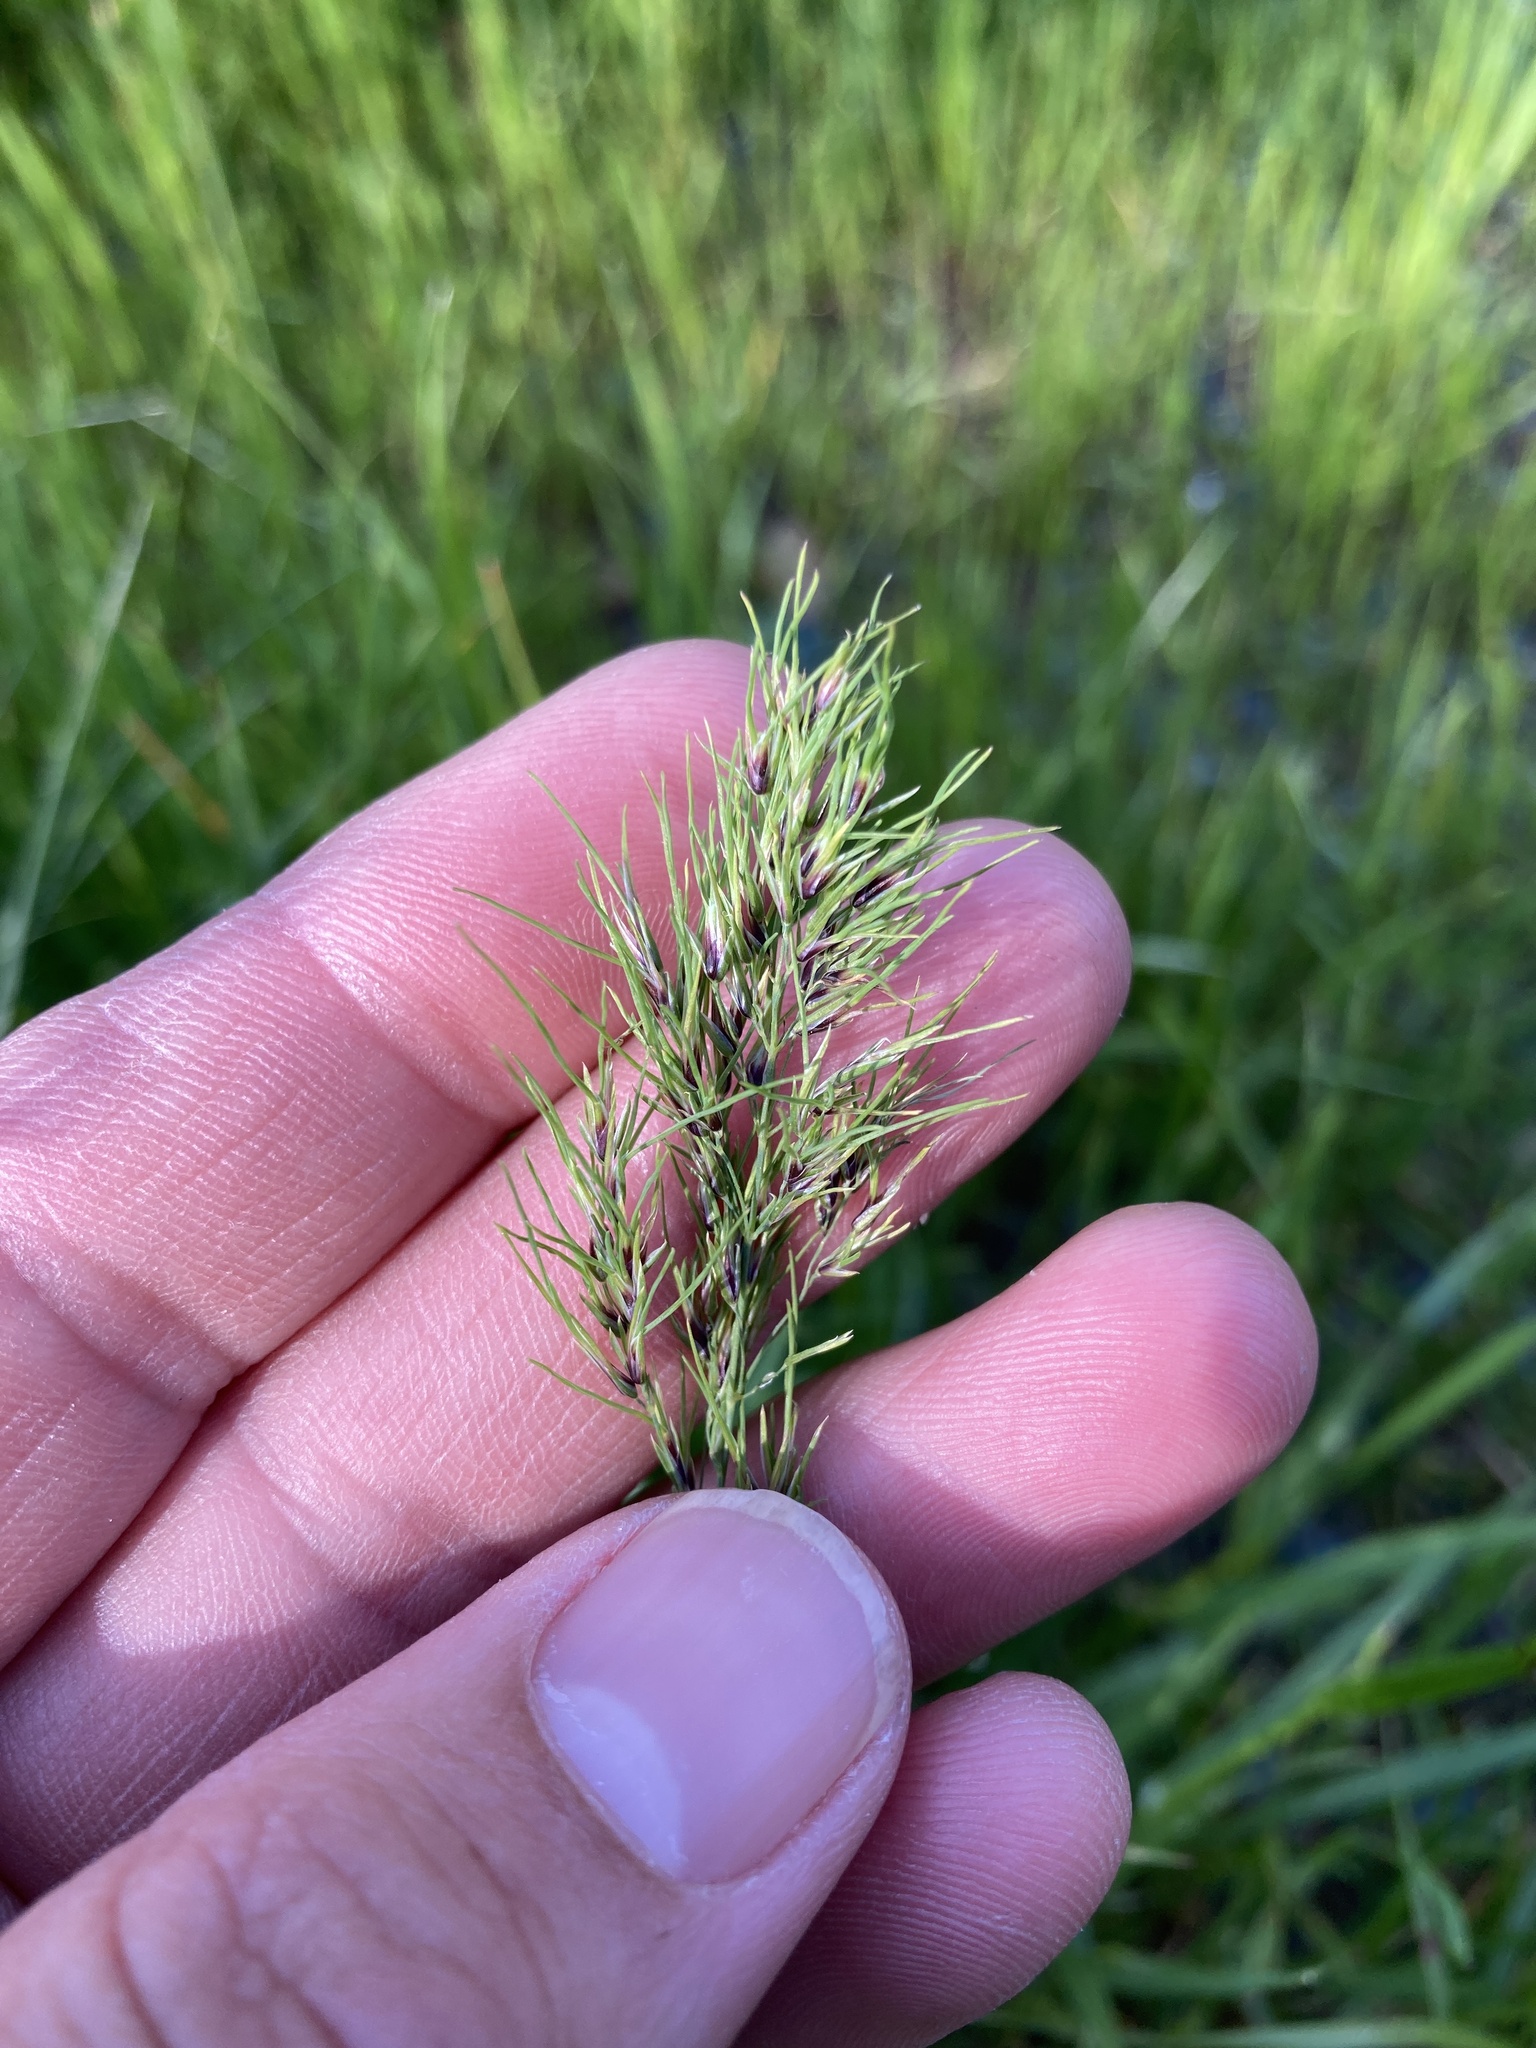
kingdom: Plantae
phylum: Tracheophyta
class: Liliopsida
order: Poales
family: Poaceae
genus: Poa
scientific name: Poa bulbosa
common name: Bulbous bluegrass
